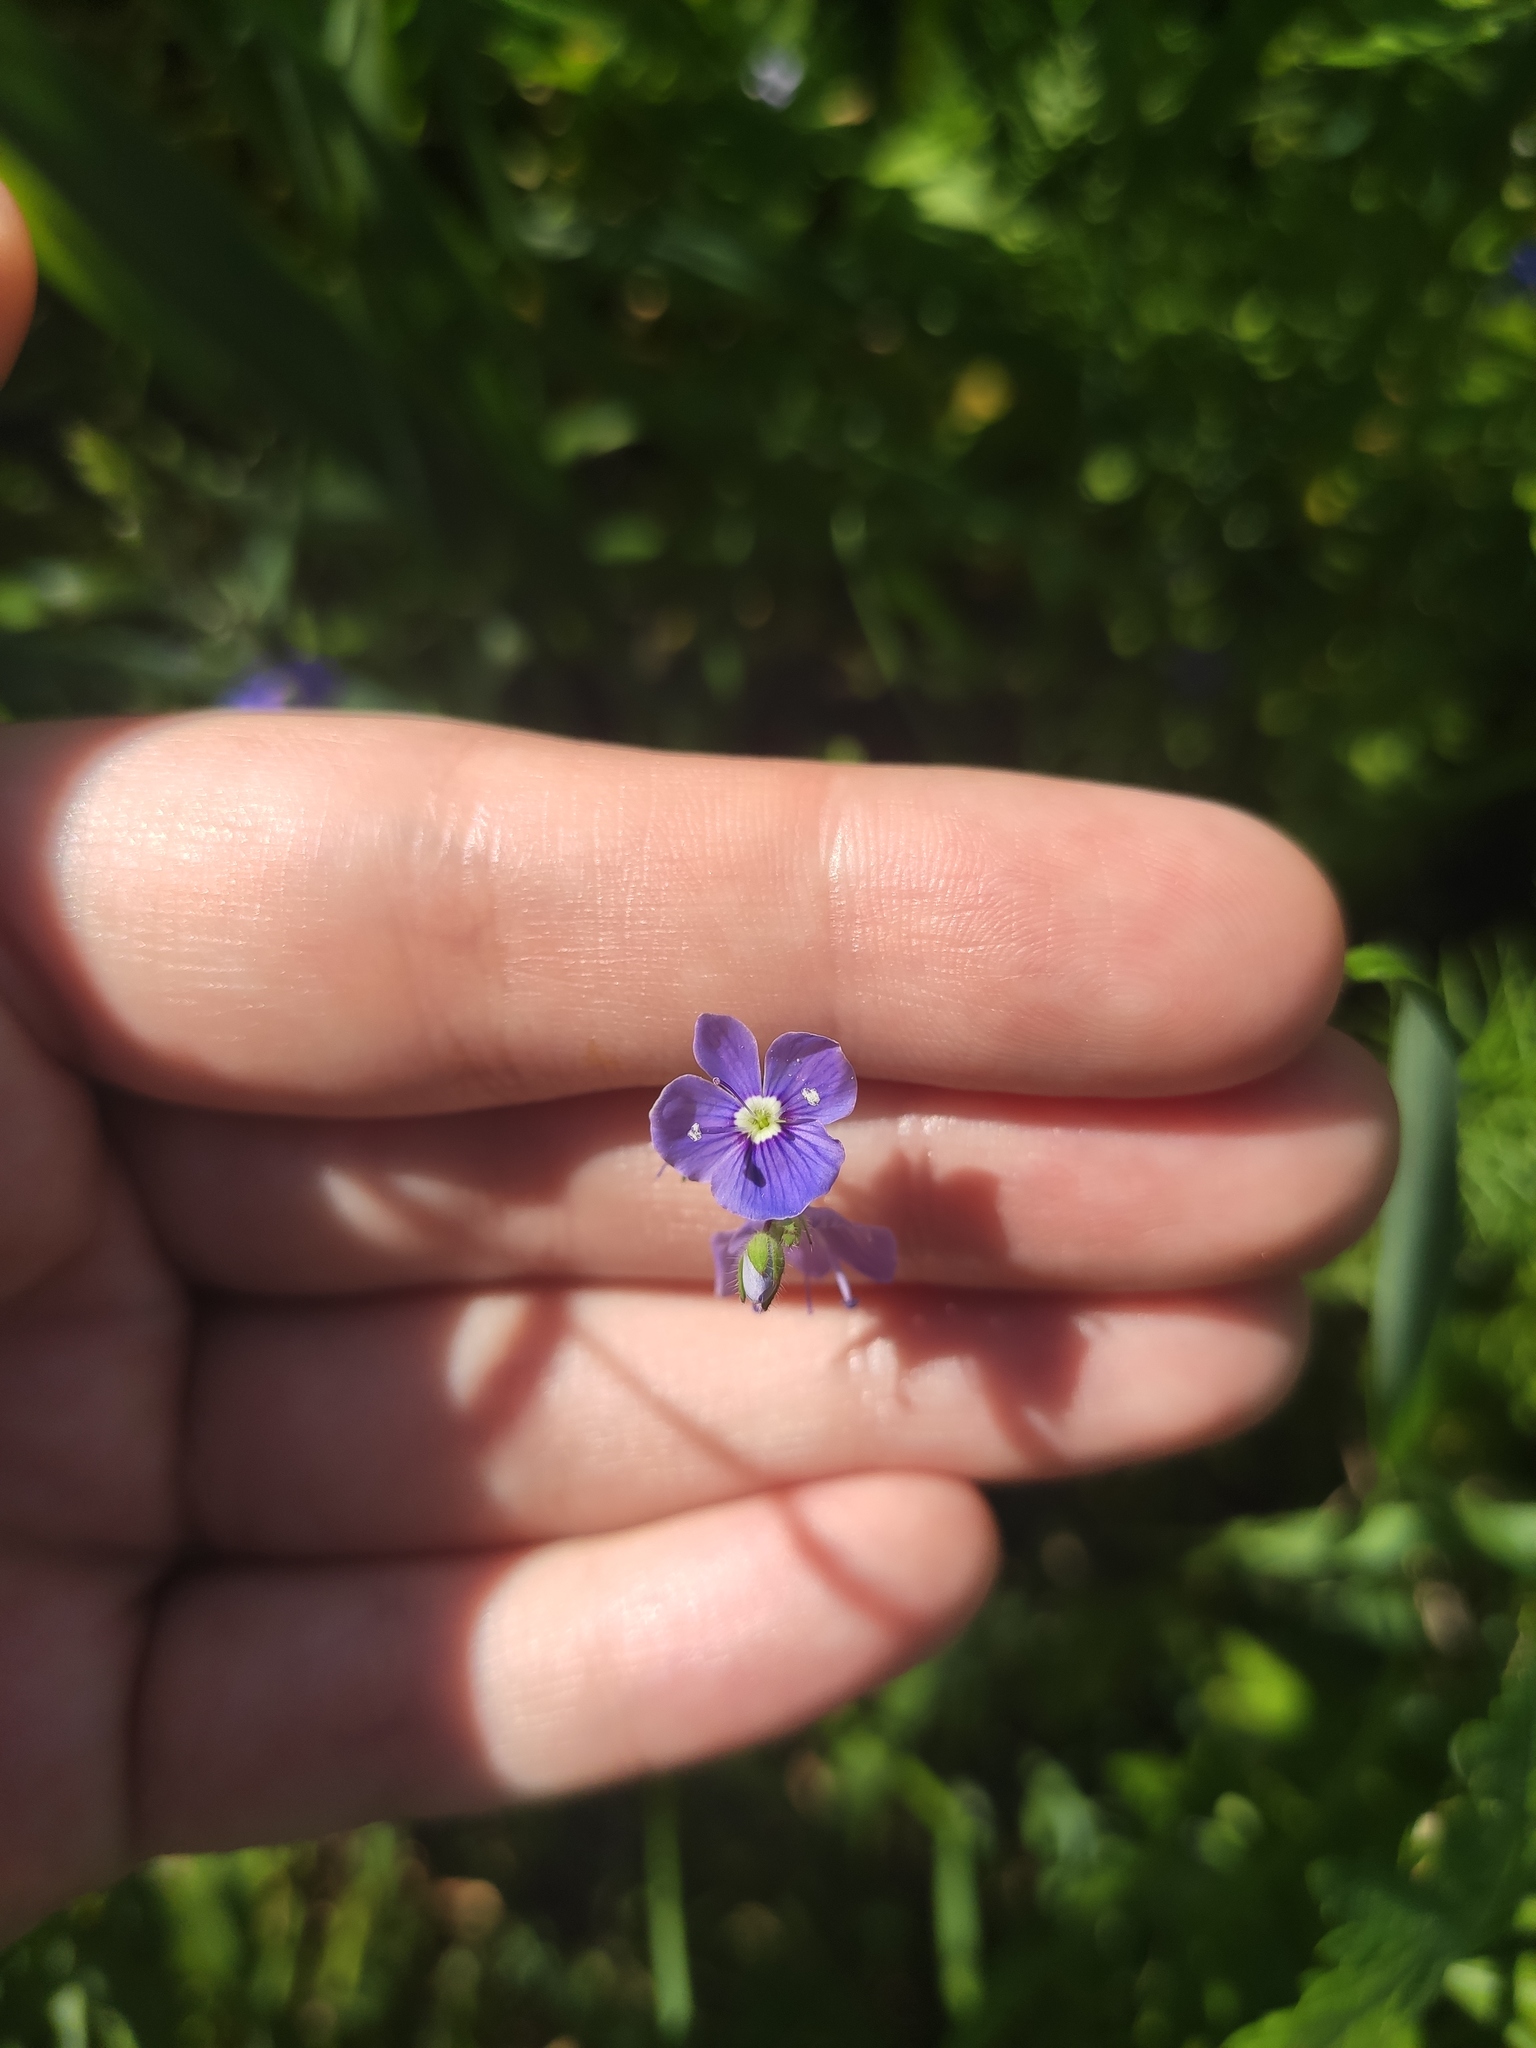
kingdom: Plantae
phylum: Tracheophyta
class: Magnoliopsida
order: Lamiales
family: Plantaginaceae
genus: Veronica
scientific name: Veronica chamaedrys
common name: Germander speedwell
